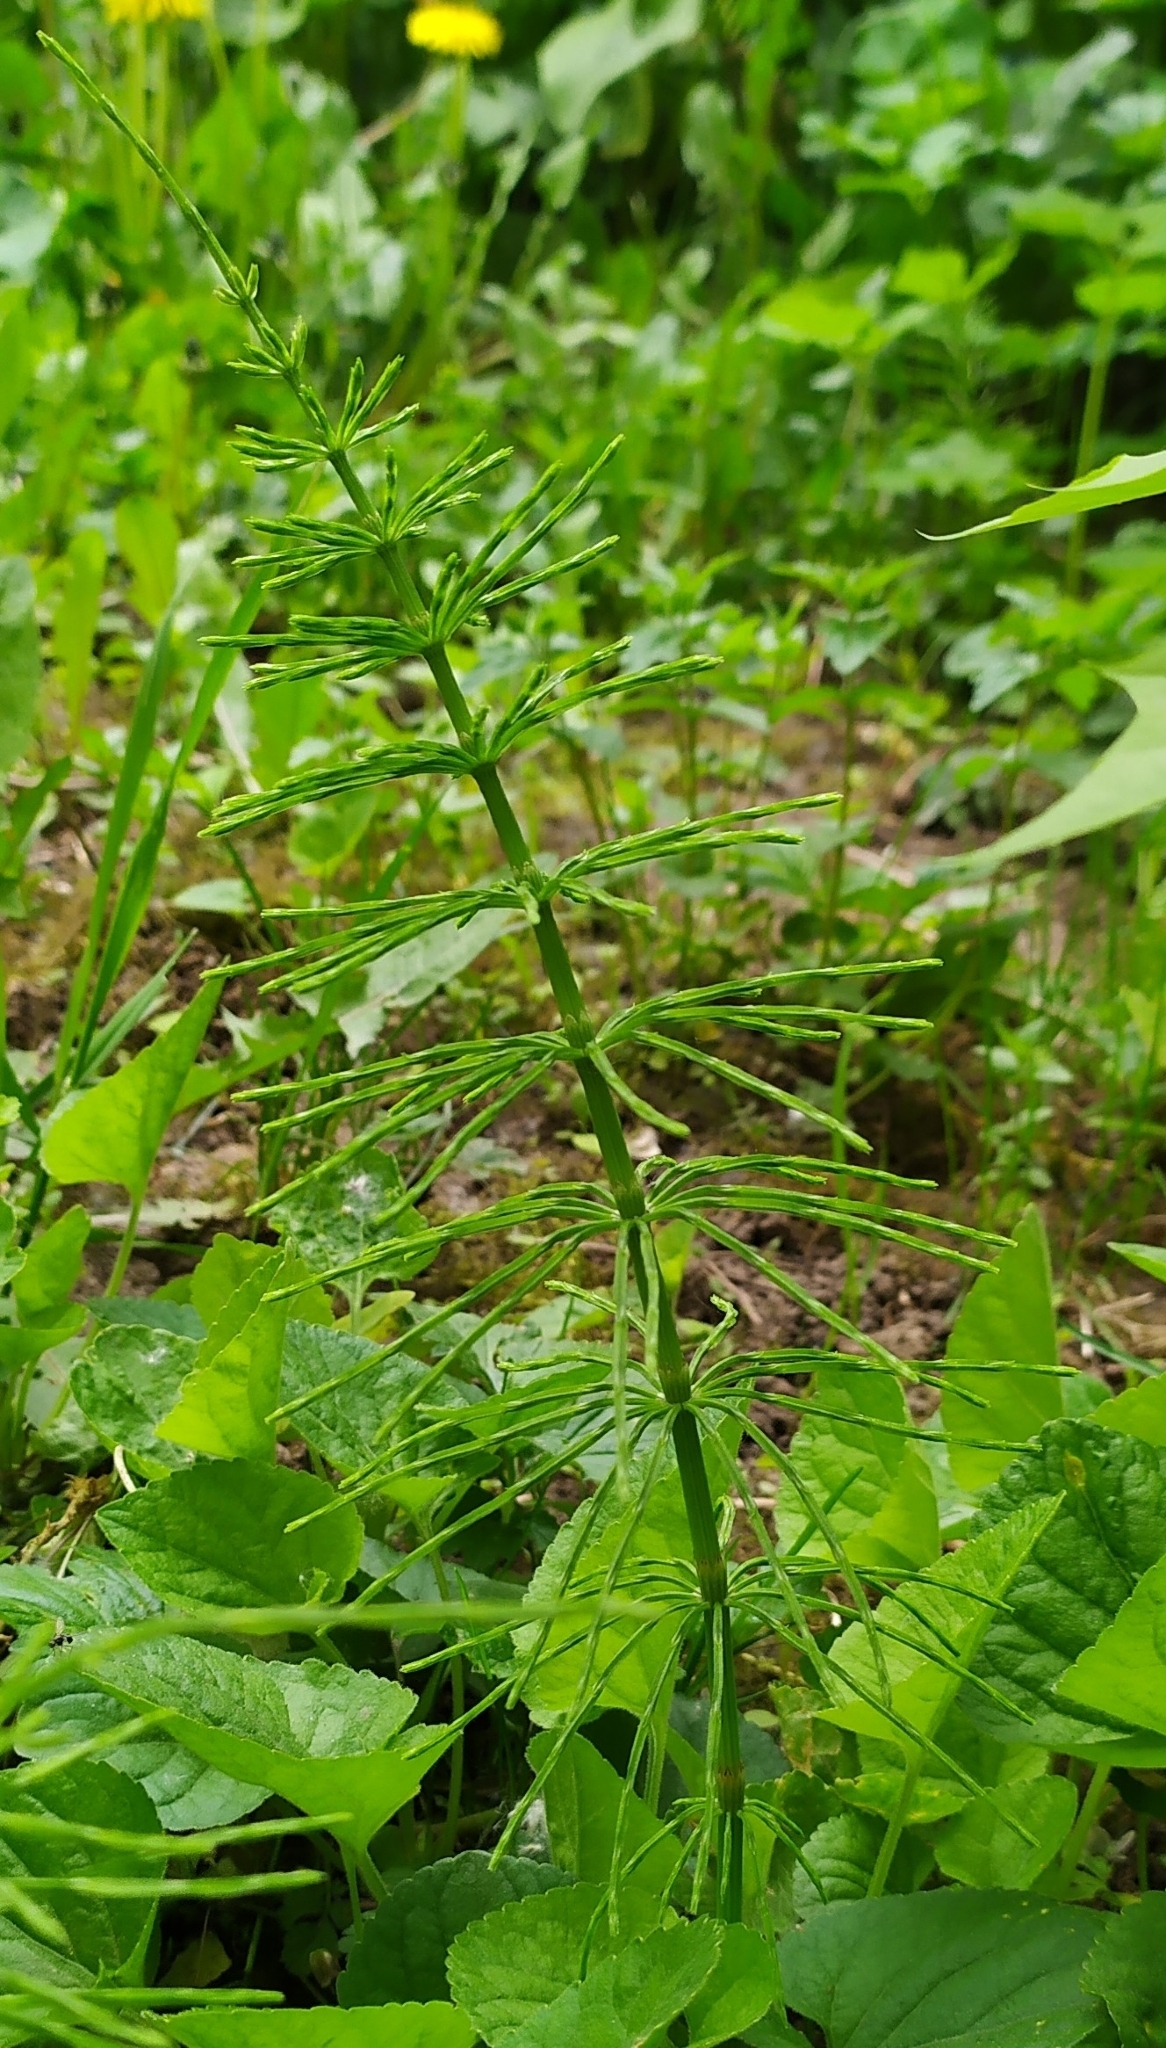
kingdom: Plantae
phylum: Tracheophyta
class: Polypodiopsida
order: Equisetales
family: Equisetaceae
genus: Equisetum
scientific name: Equisetum arvense
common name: Field horsetail
